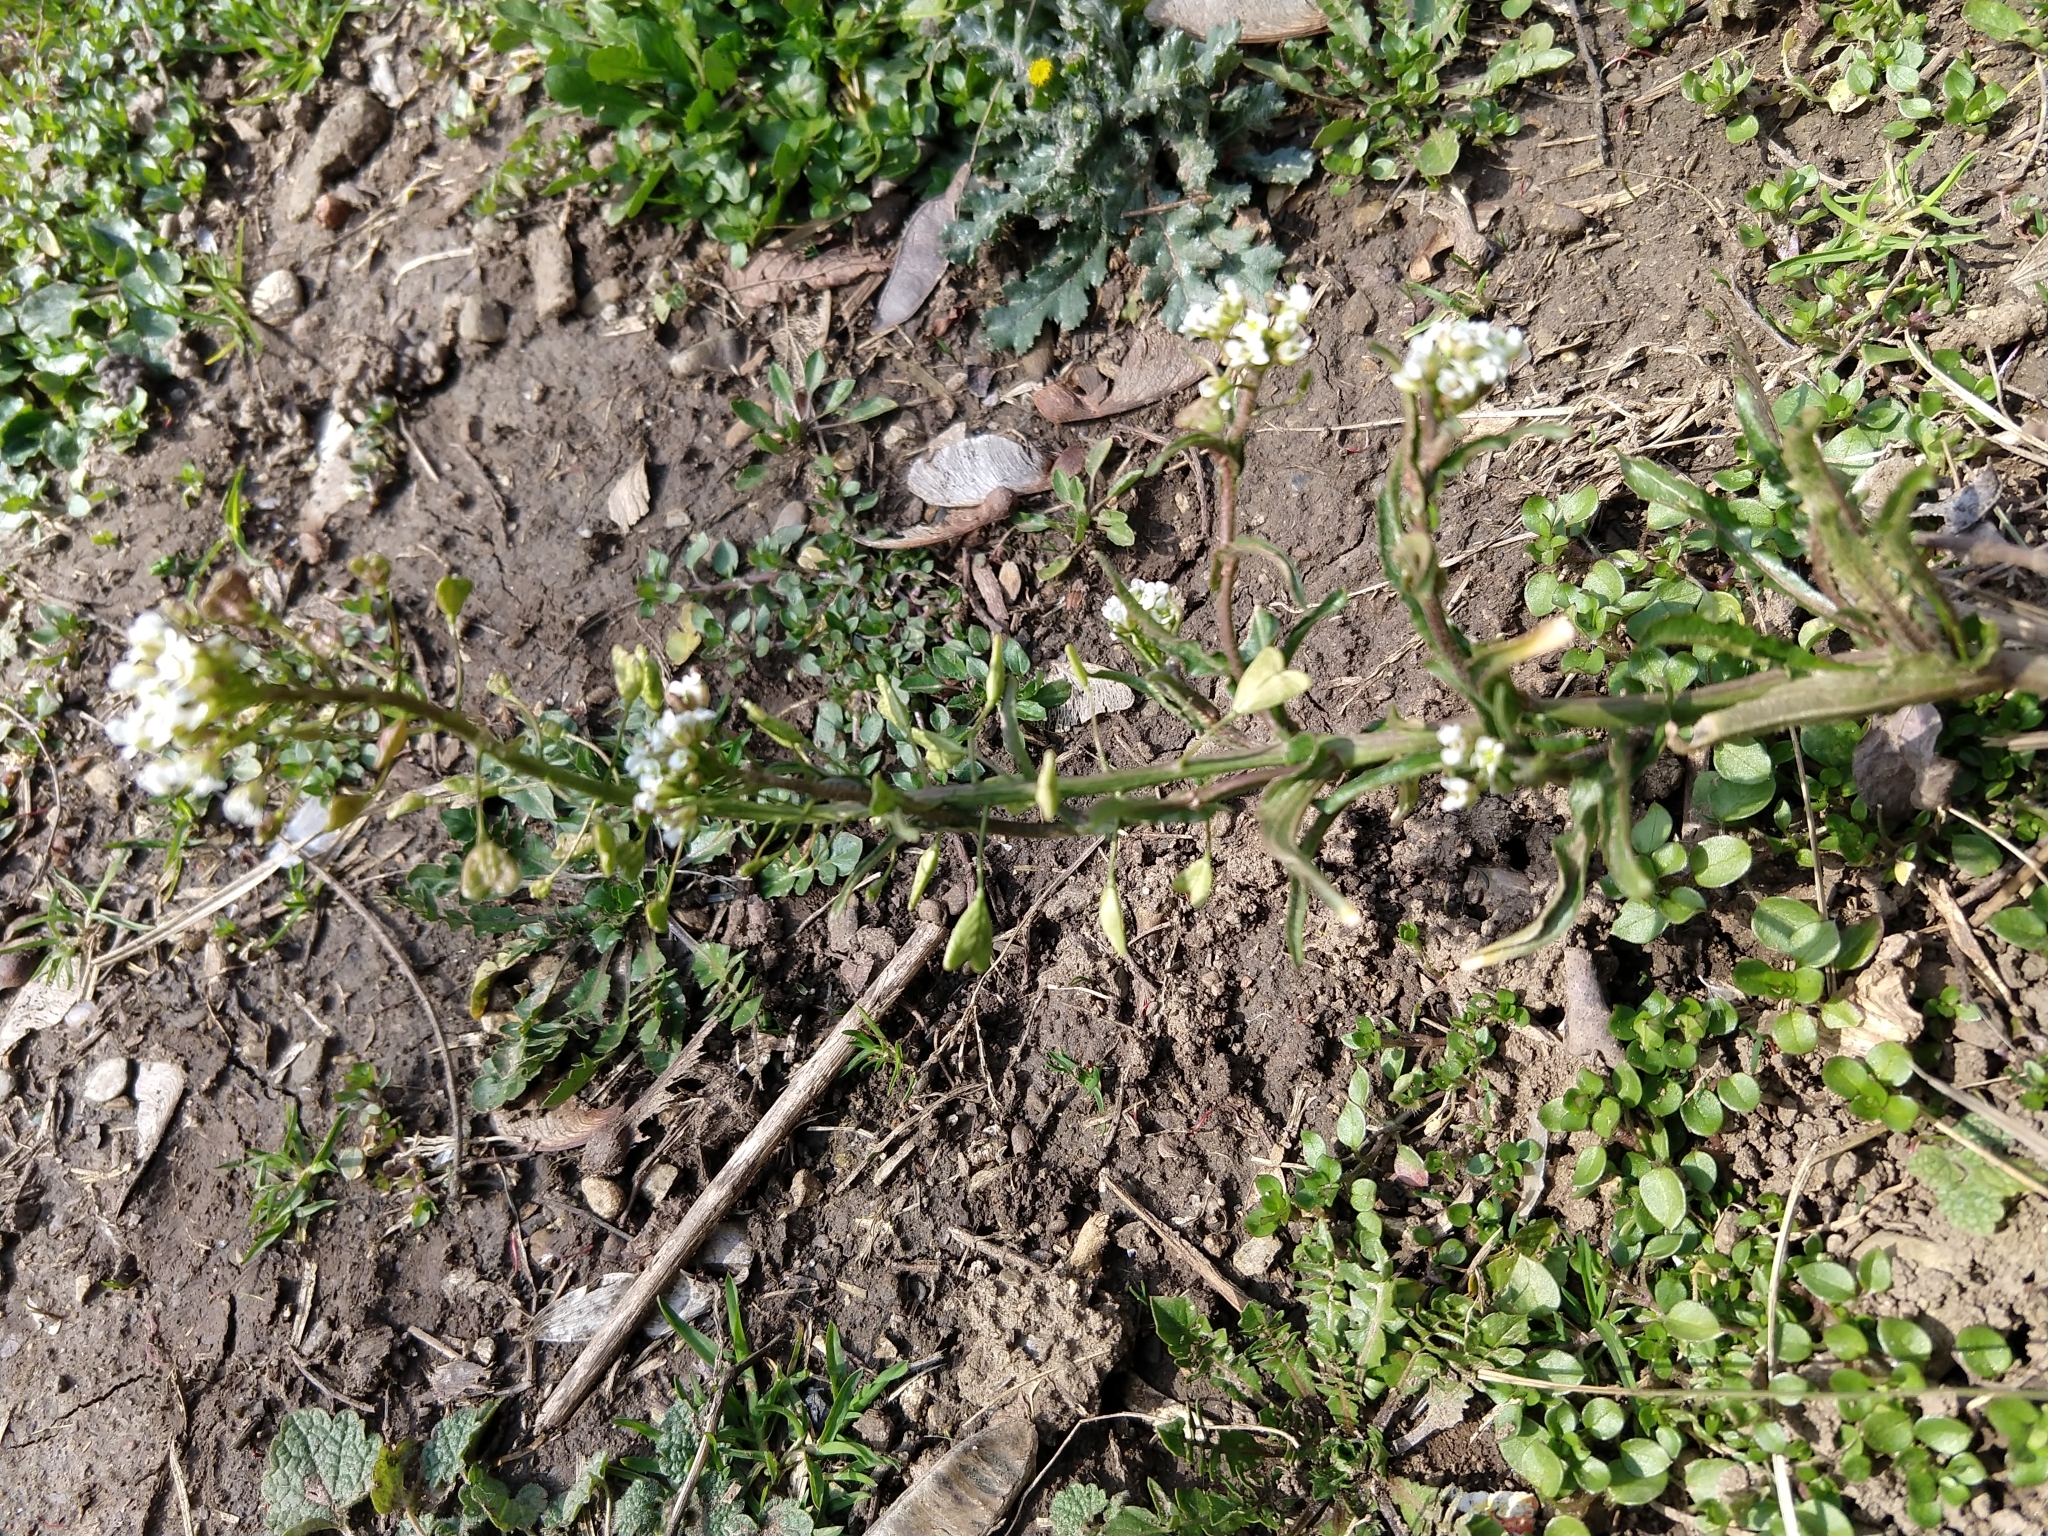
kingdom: Plantae
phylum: Tracheophyta
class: Magnoliopsida
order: Brassicales
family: Brassicaceae
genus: Capsella
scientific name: Capsella bursa-pastoris
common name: Shepherd's purse
